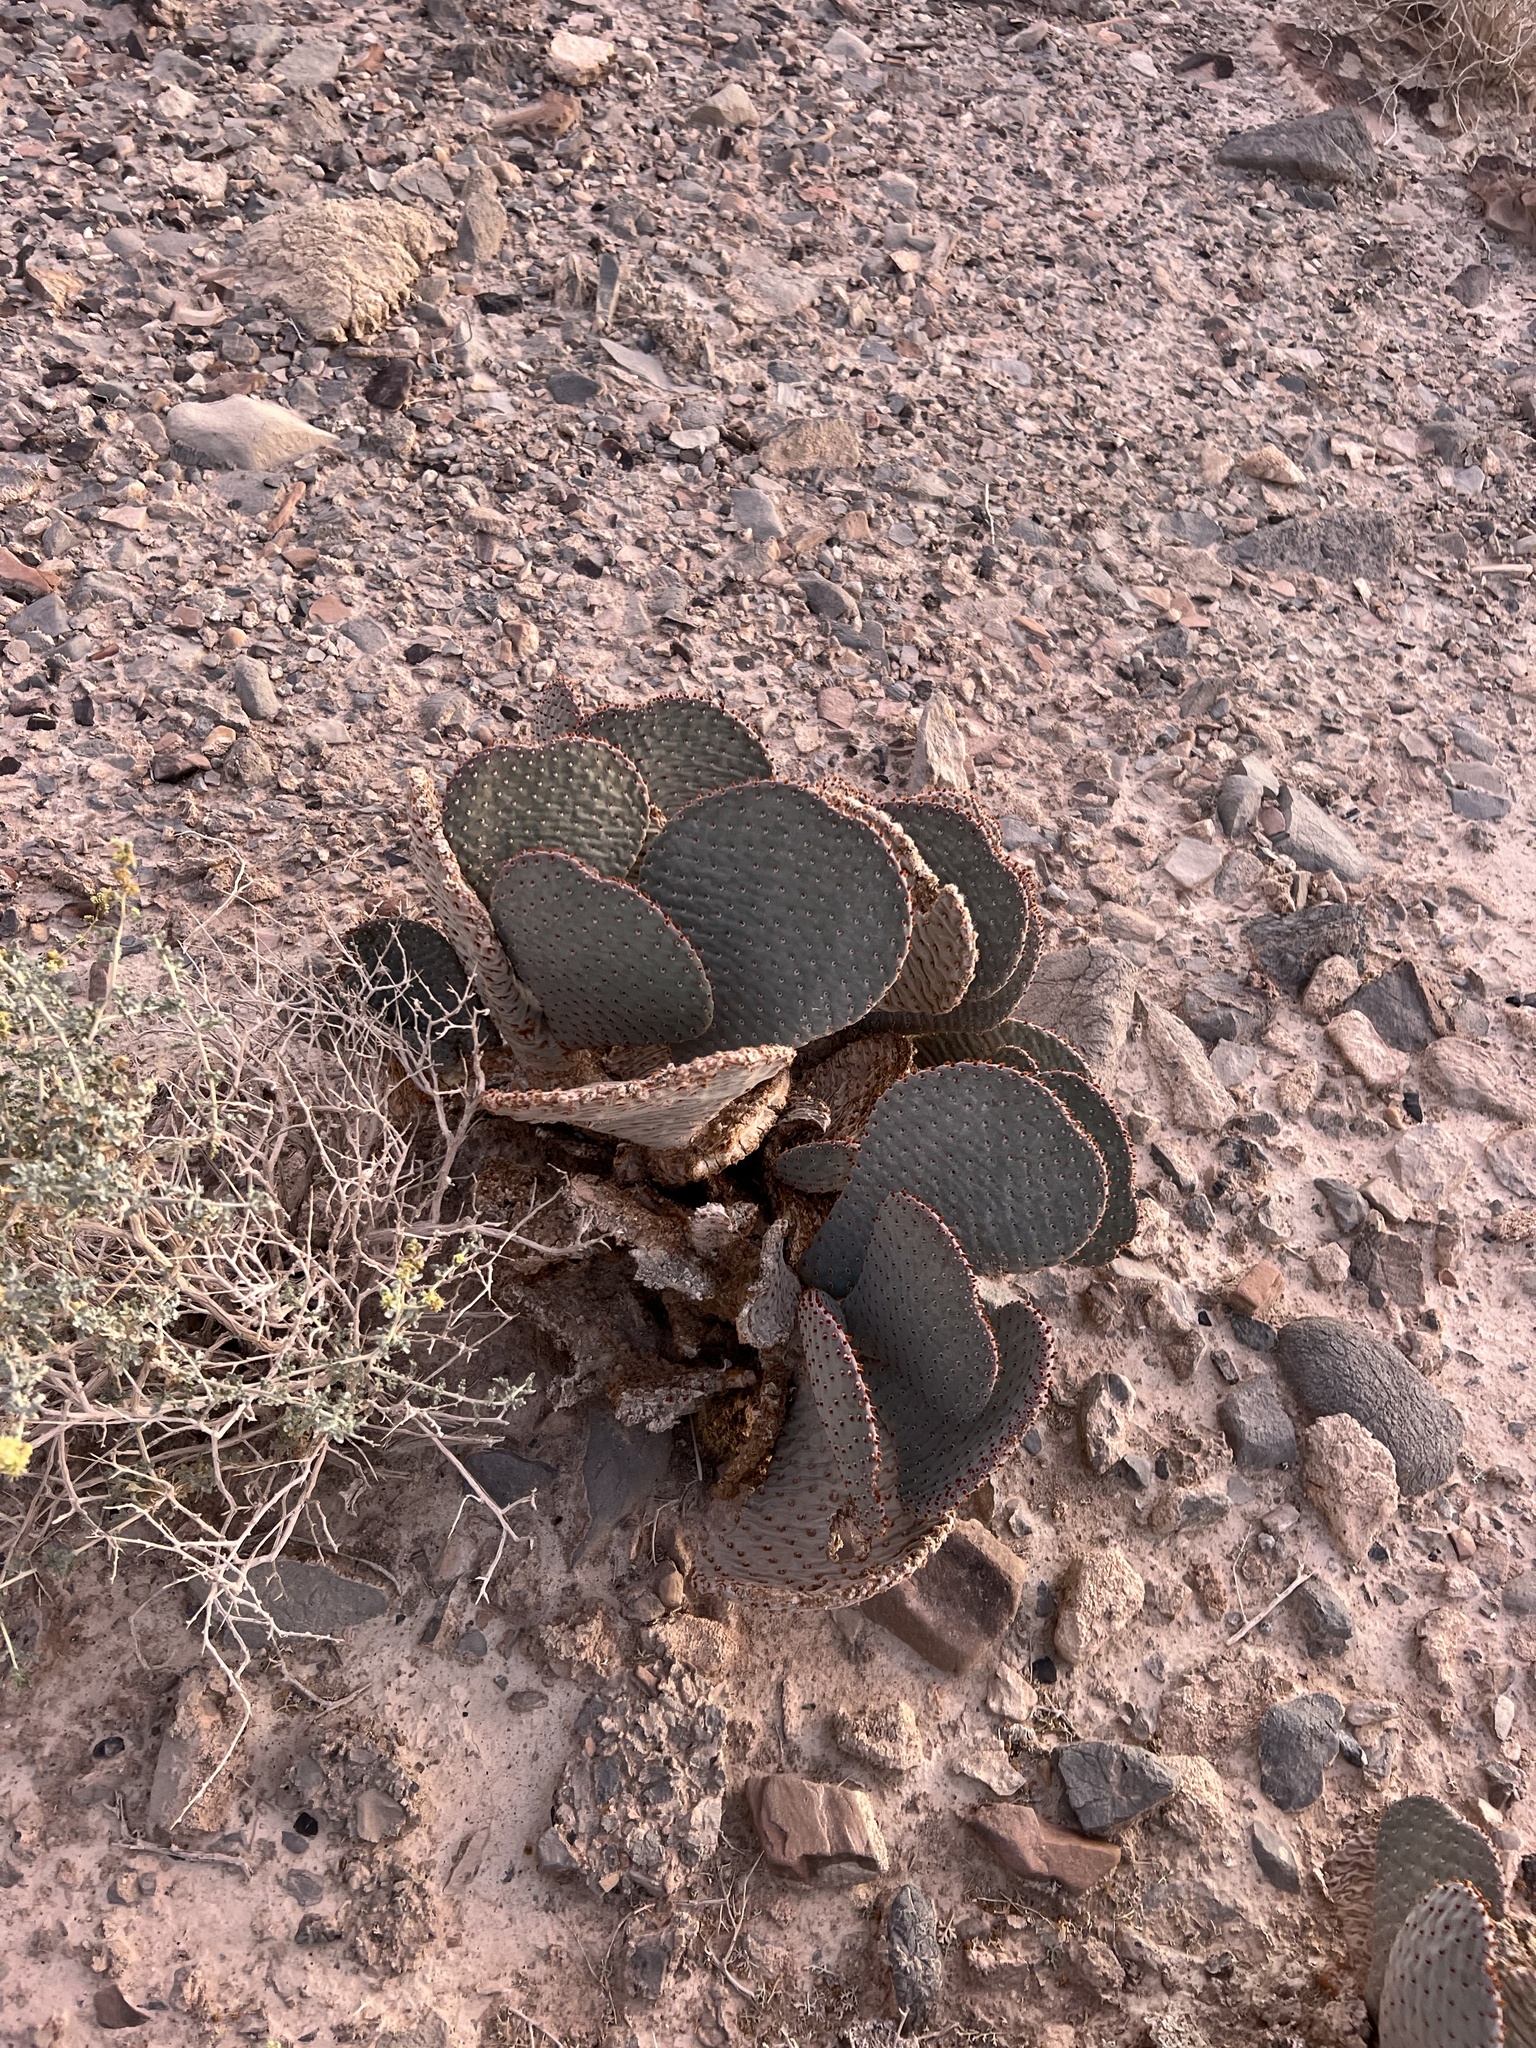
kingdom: Plantae
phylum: Tracheophyta
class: Magnoliopsida
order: Caryophyllales
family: Cactaceae
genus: Opuntia
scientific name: Opuntia basilaris
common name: Beavertail prickly-pear
